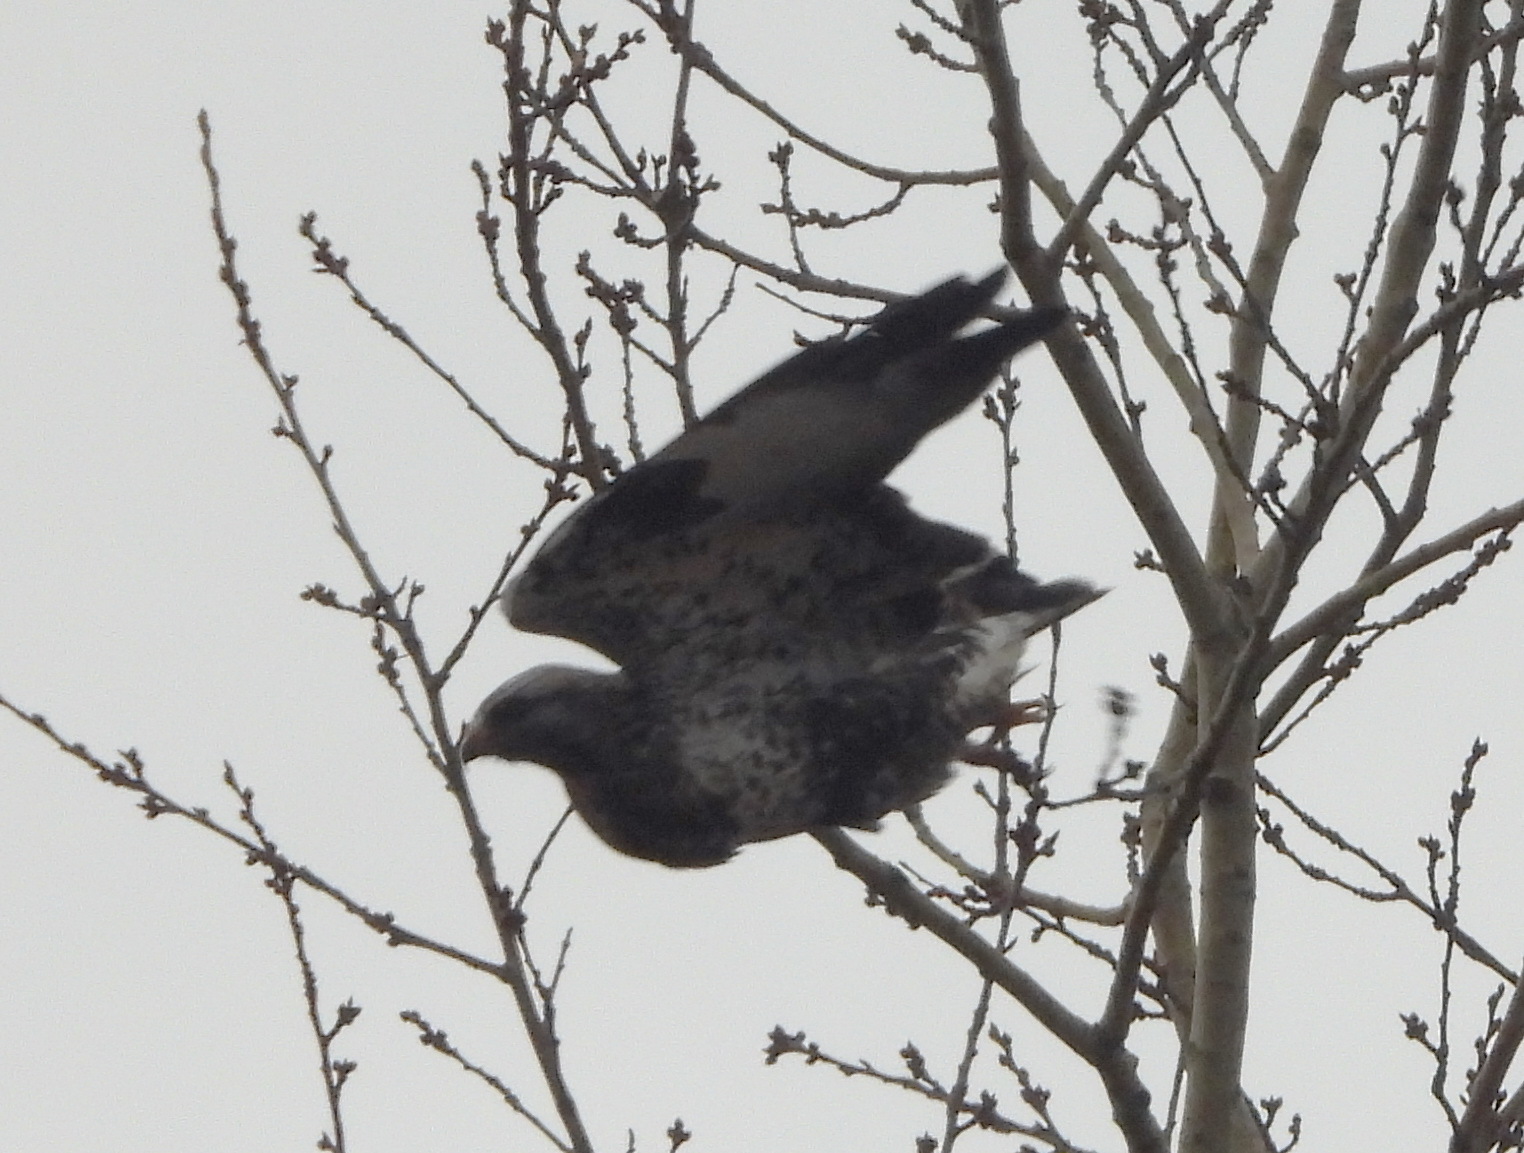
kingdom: Animalia
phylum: Chordata
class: Aves
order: Accipitriformes
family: Accipitridae
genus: Buteo
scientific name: Buteo lagopus
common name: Rough-legged buzzard
